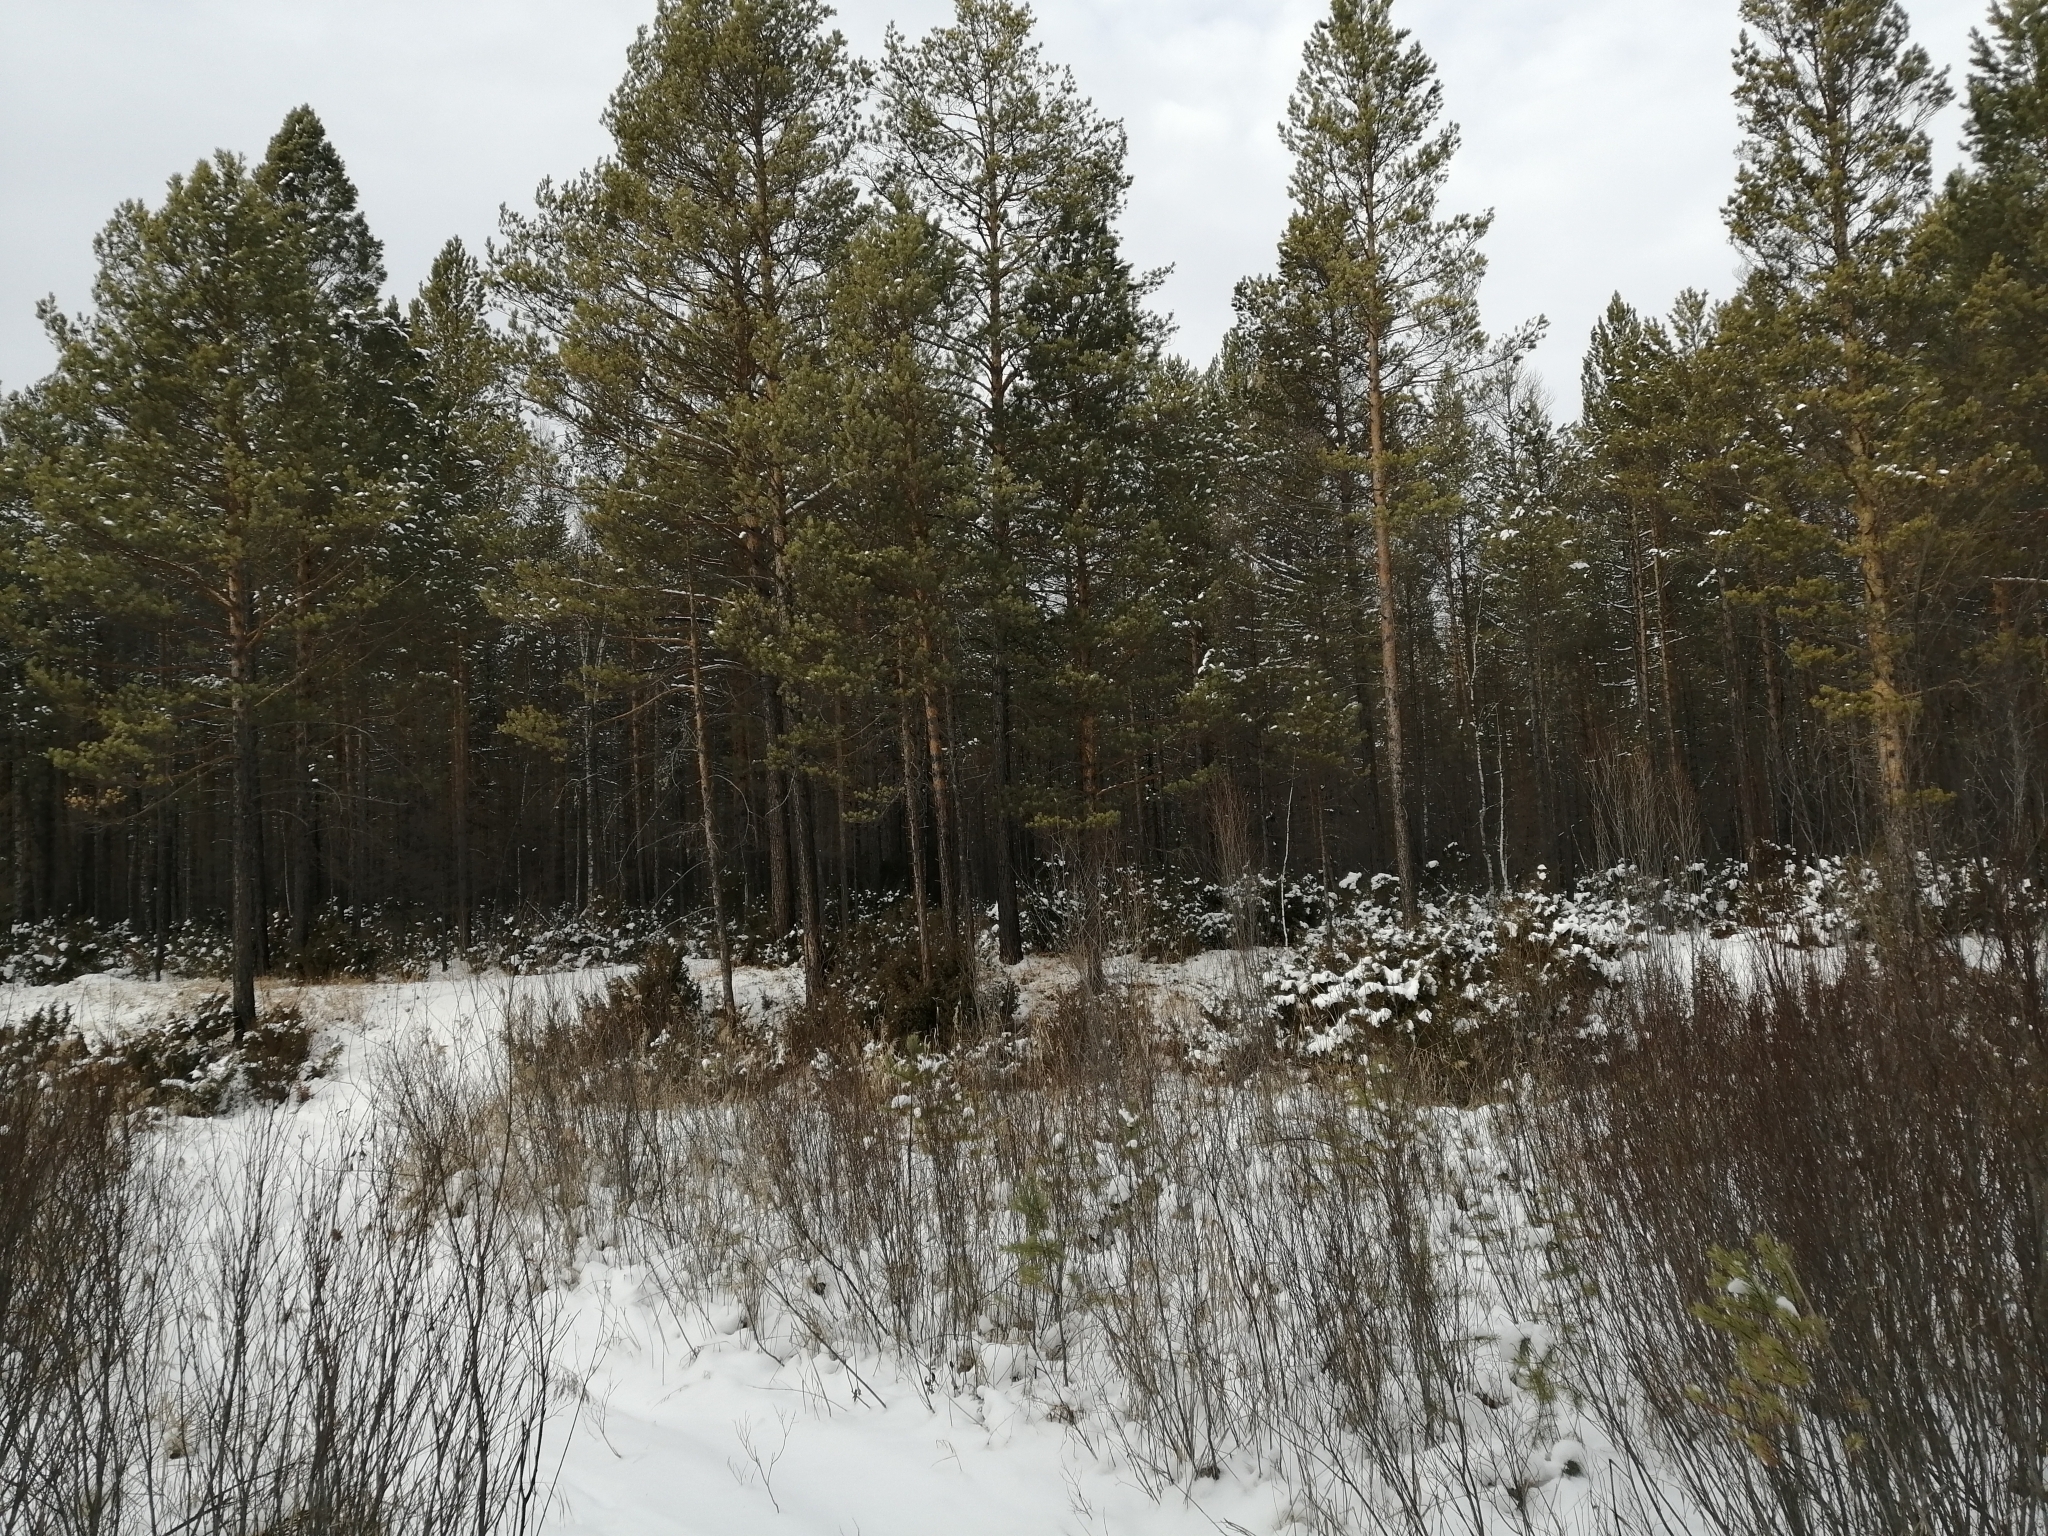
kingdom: Plantae
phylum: Tracheophyta
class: Pinopsida
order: Pinales
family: Pinaceae
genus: Pinus
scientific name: Pinus sylvestris
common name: Scots pine
